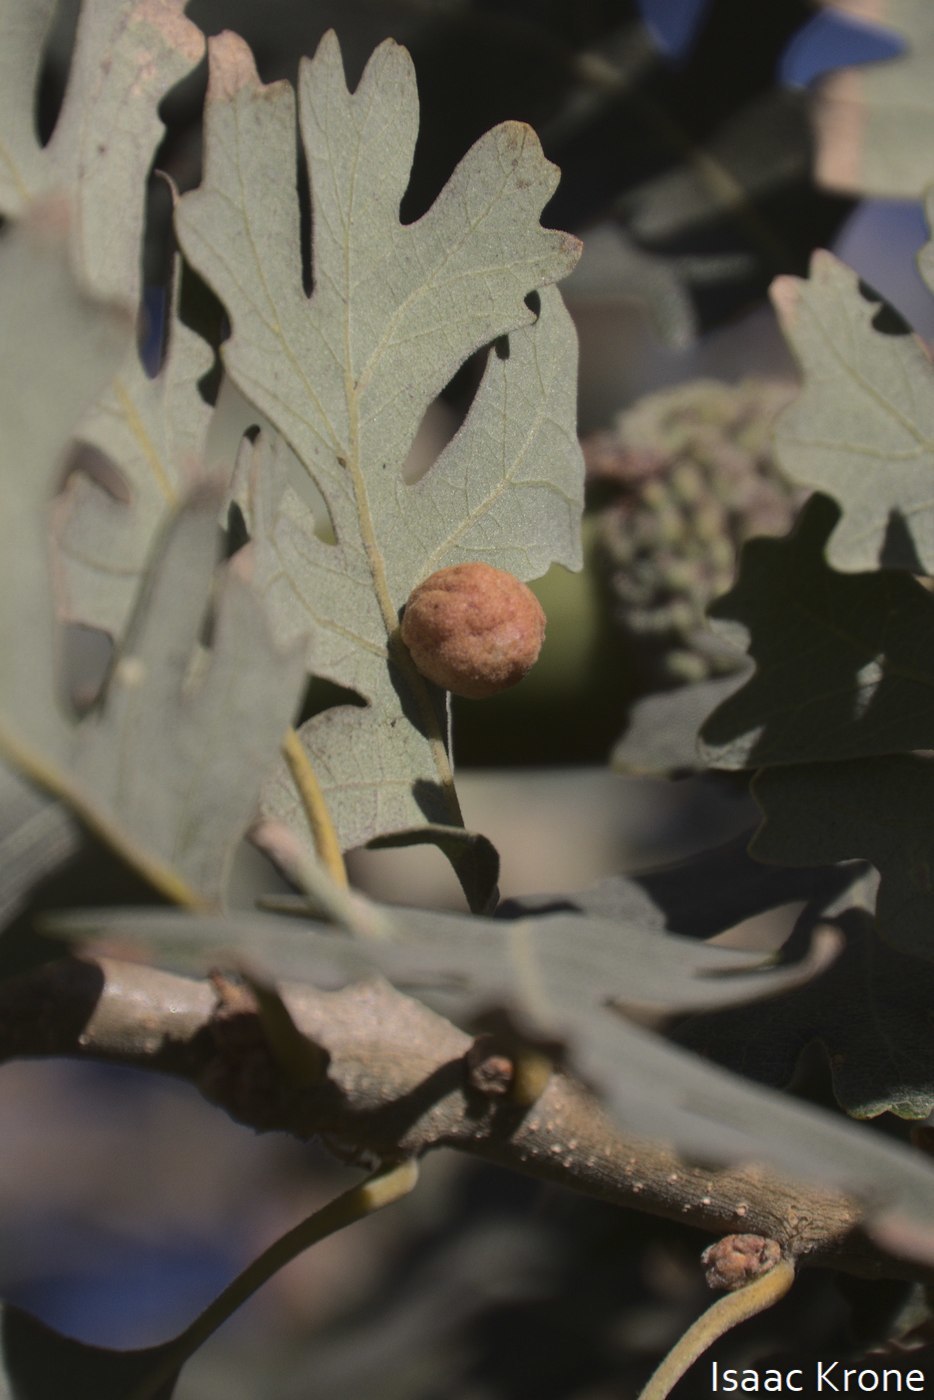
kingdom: Animalia
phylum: Arthropoda
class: Insecta
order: Hymenoptera
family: Cynipidae
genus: Andricus
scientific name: Andricus
